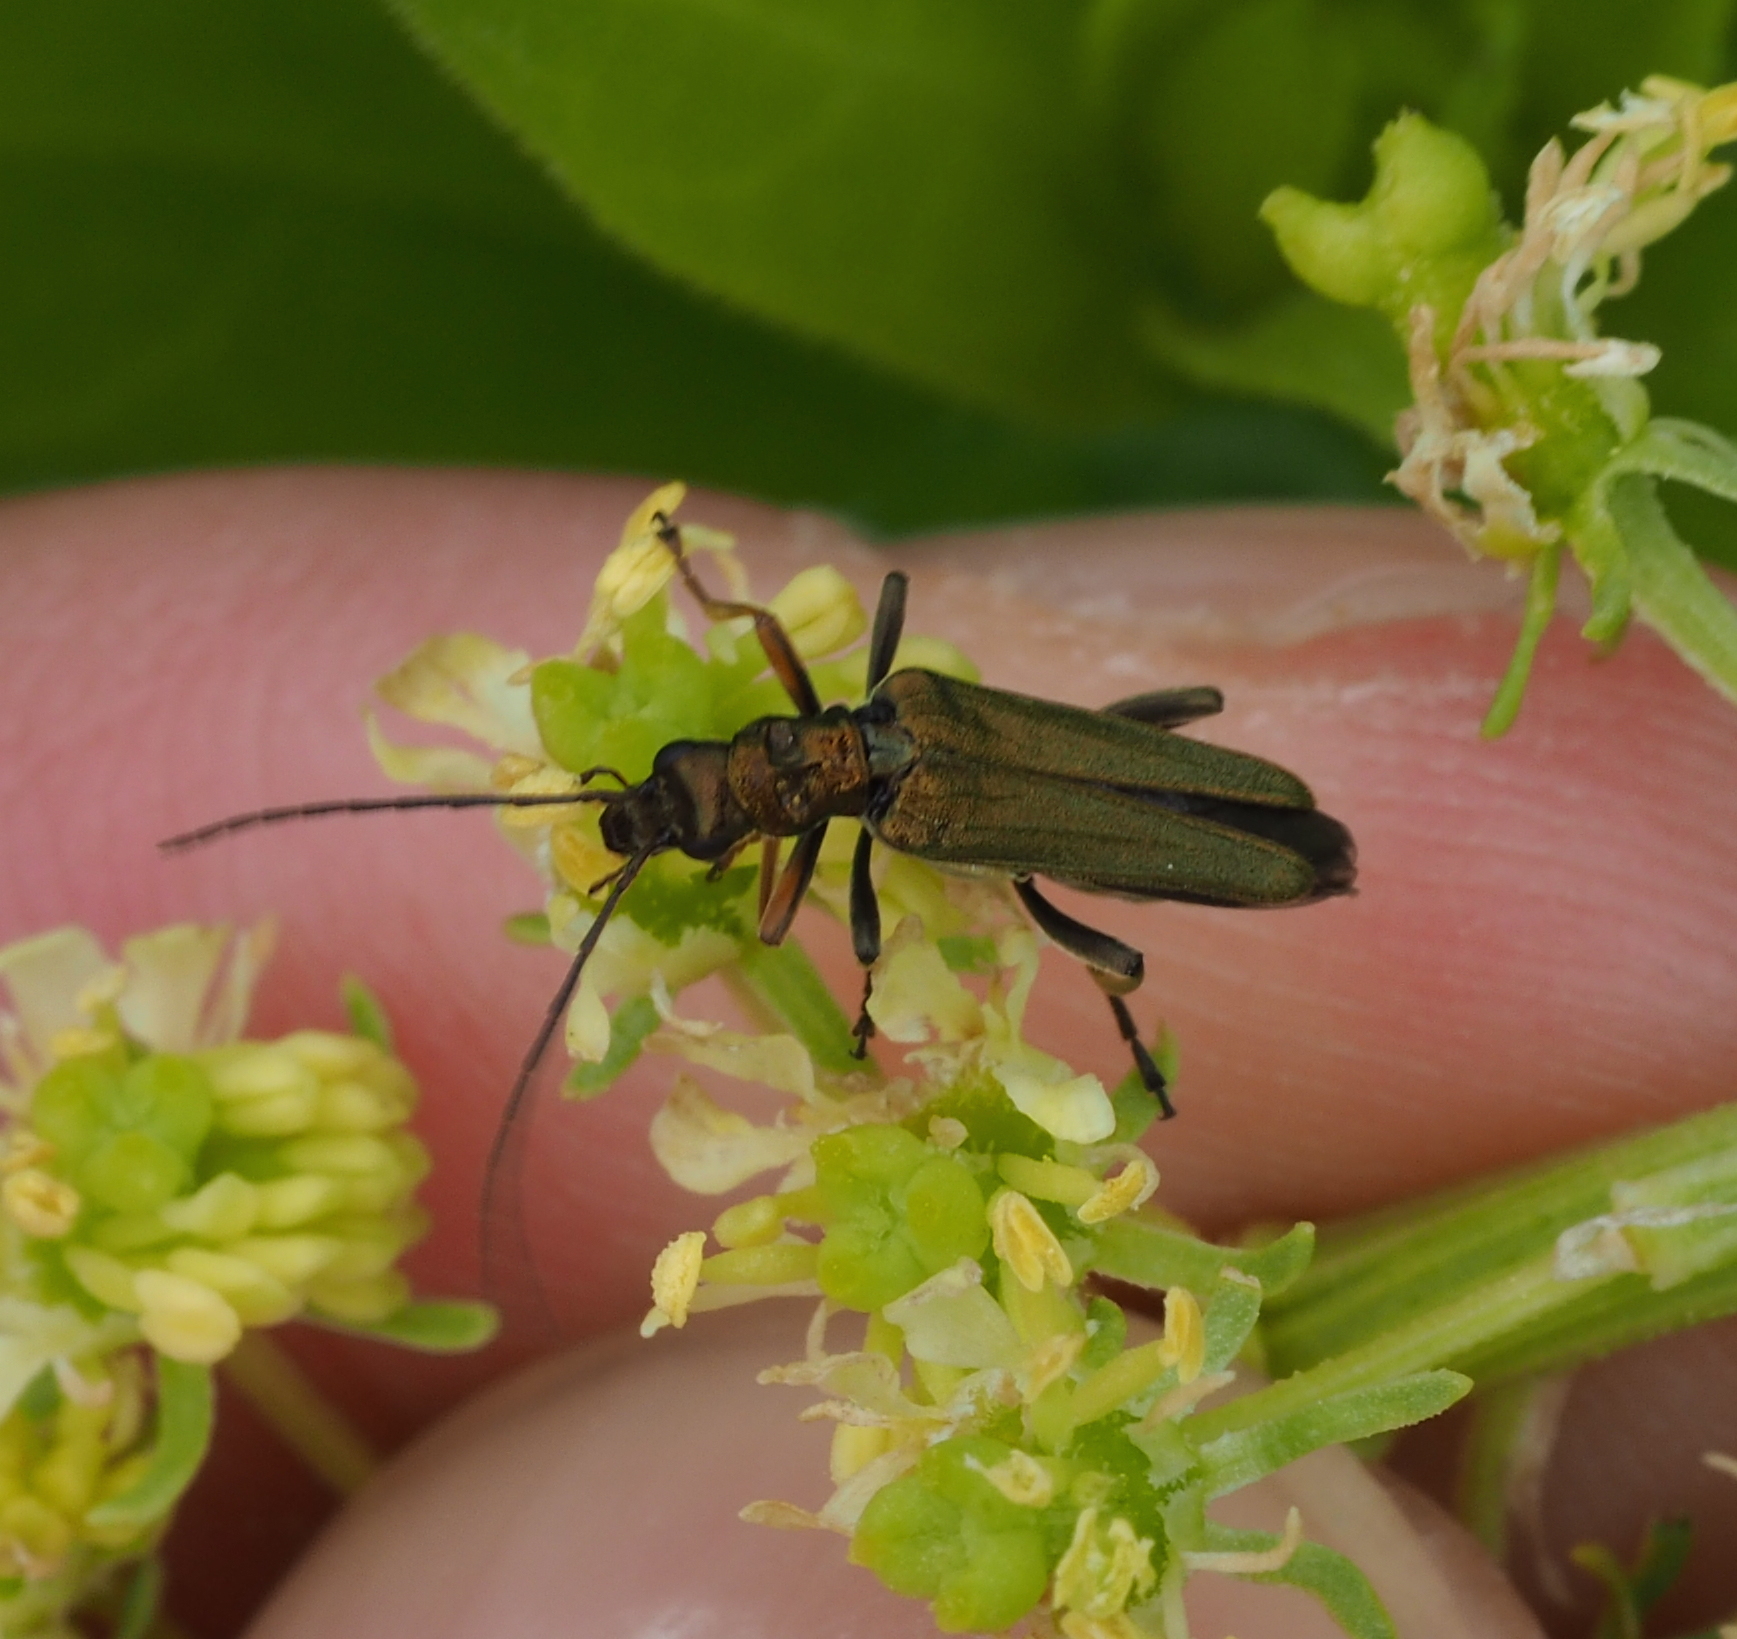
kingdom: Animalia
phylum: Arthropoda
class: Insecta
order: Coleoptera
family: Oedemeridae
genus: Oedemera
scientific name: Oedemera flavipes
